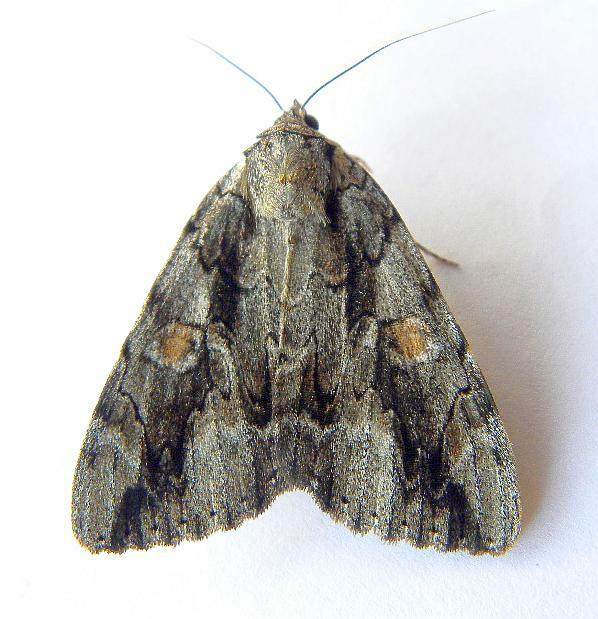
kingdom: Animalia
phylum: Arthropoda
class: Insecta
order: Lepidoptera
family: Erebidae
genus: Catocala
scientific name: Catocala flebilis
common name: Mournful underwing
